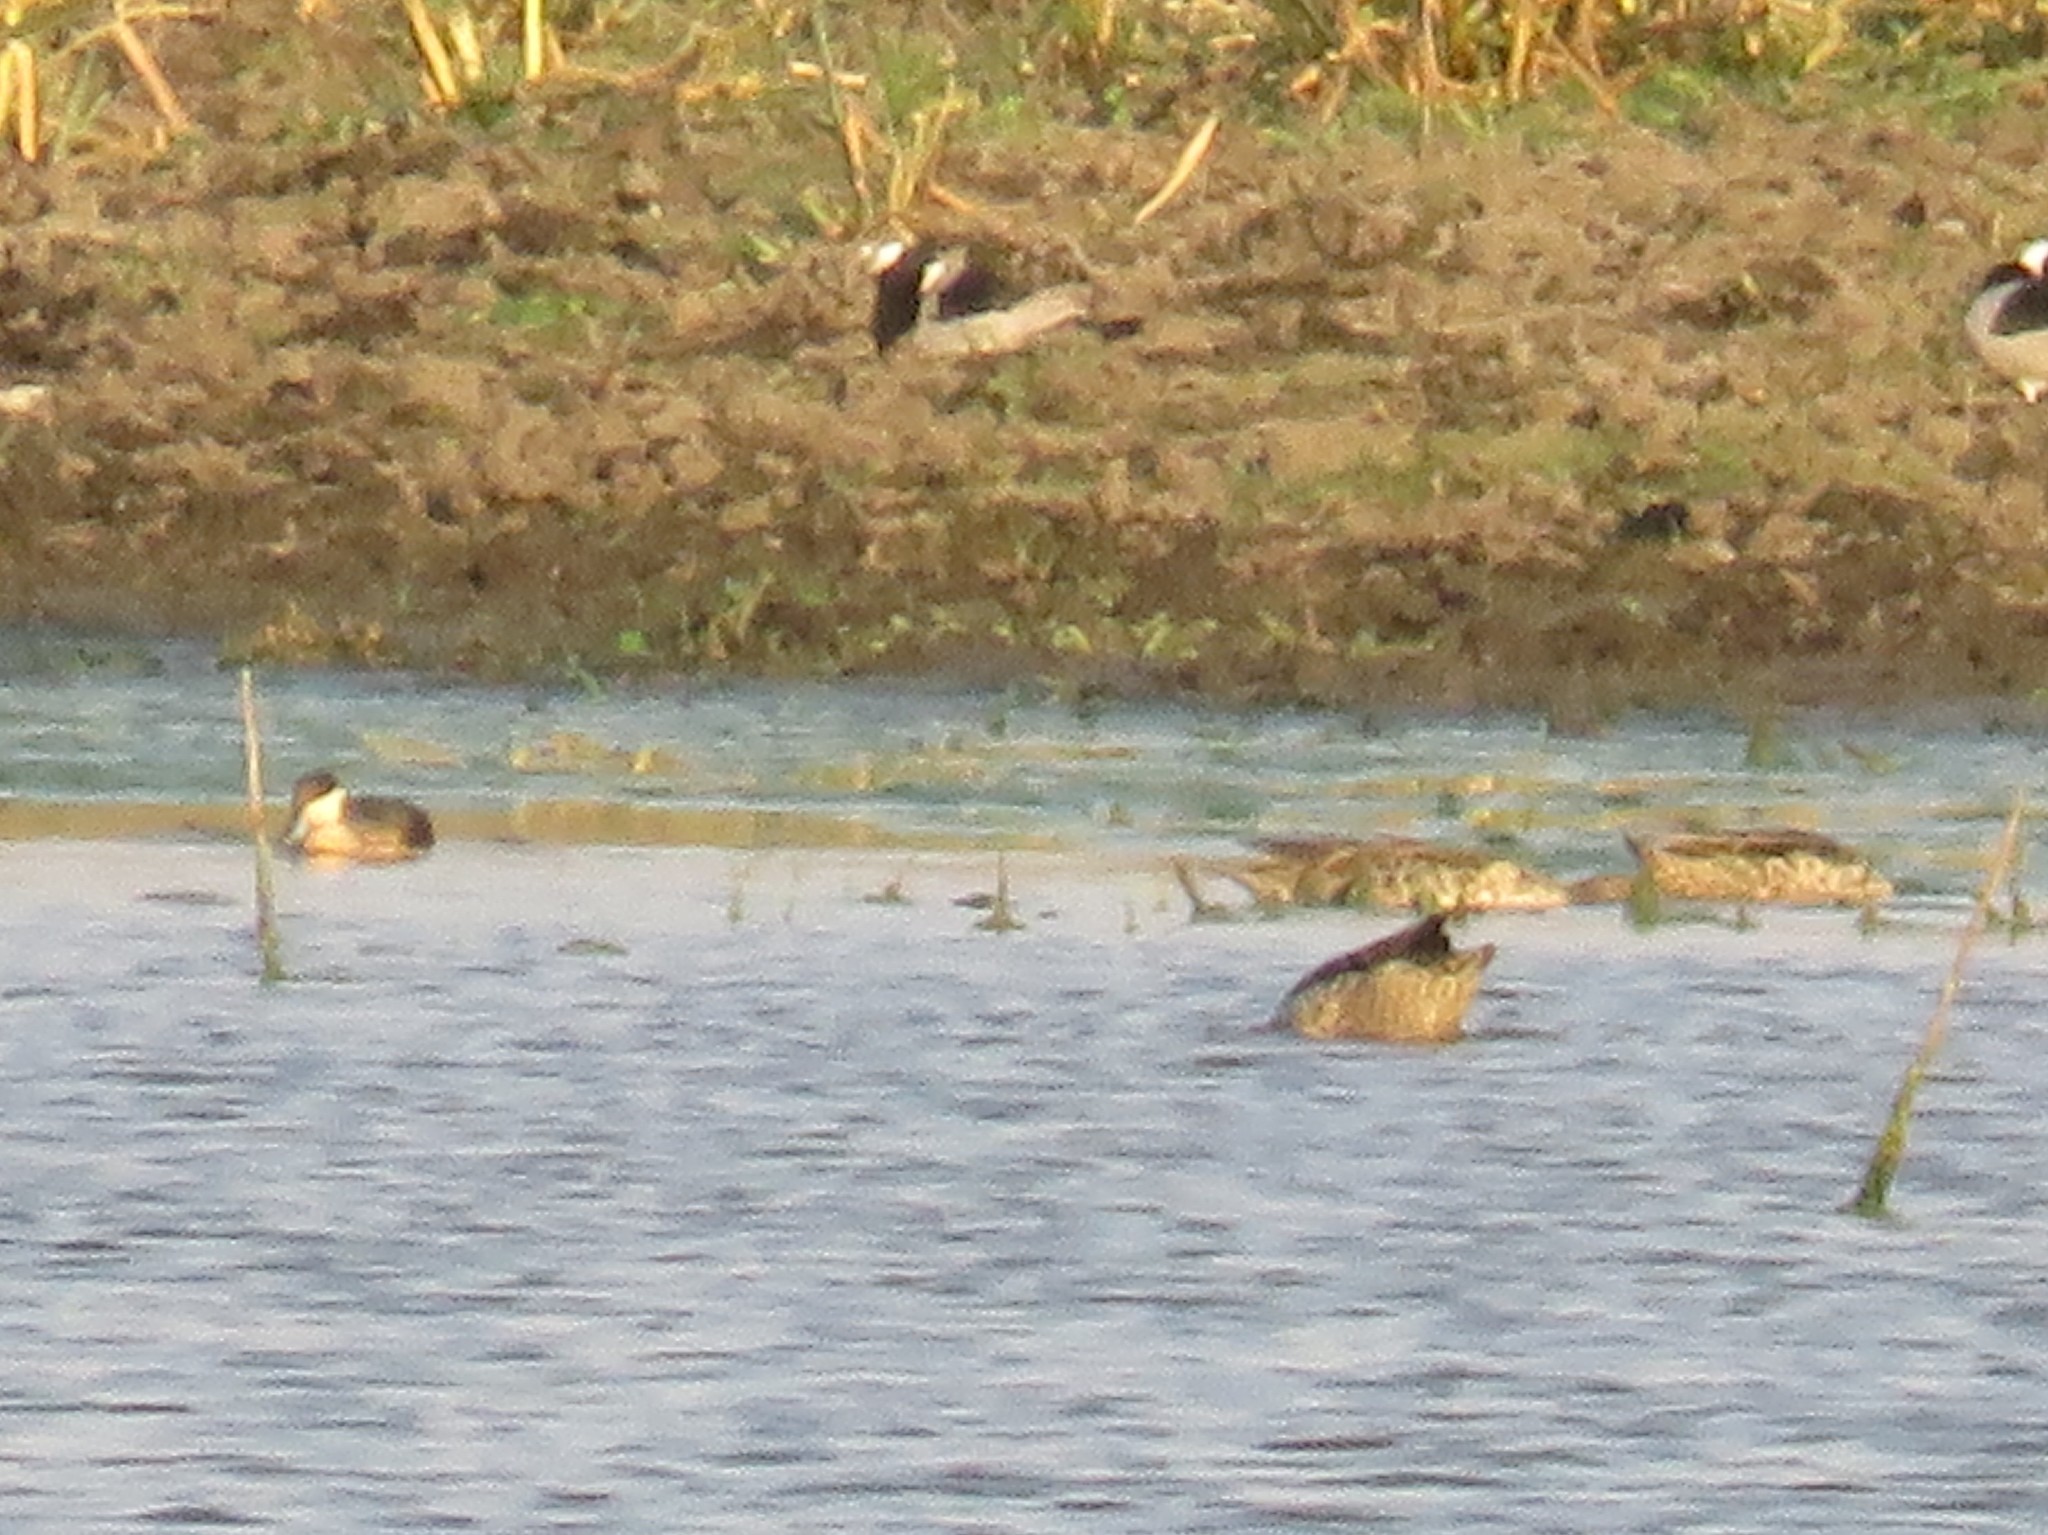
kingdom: Animalia
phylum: Chordata
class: Aves
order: Anseriformes
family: Anatidae
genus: Spatula
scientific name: Spatula hottentota
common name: Blue-billed teal
